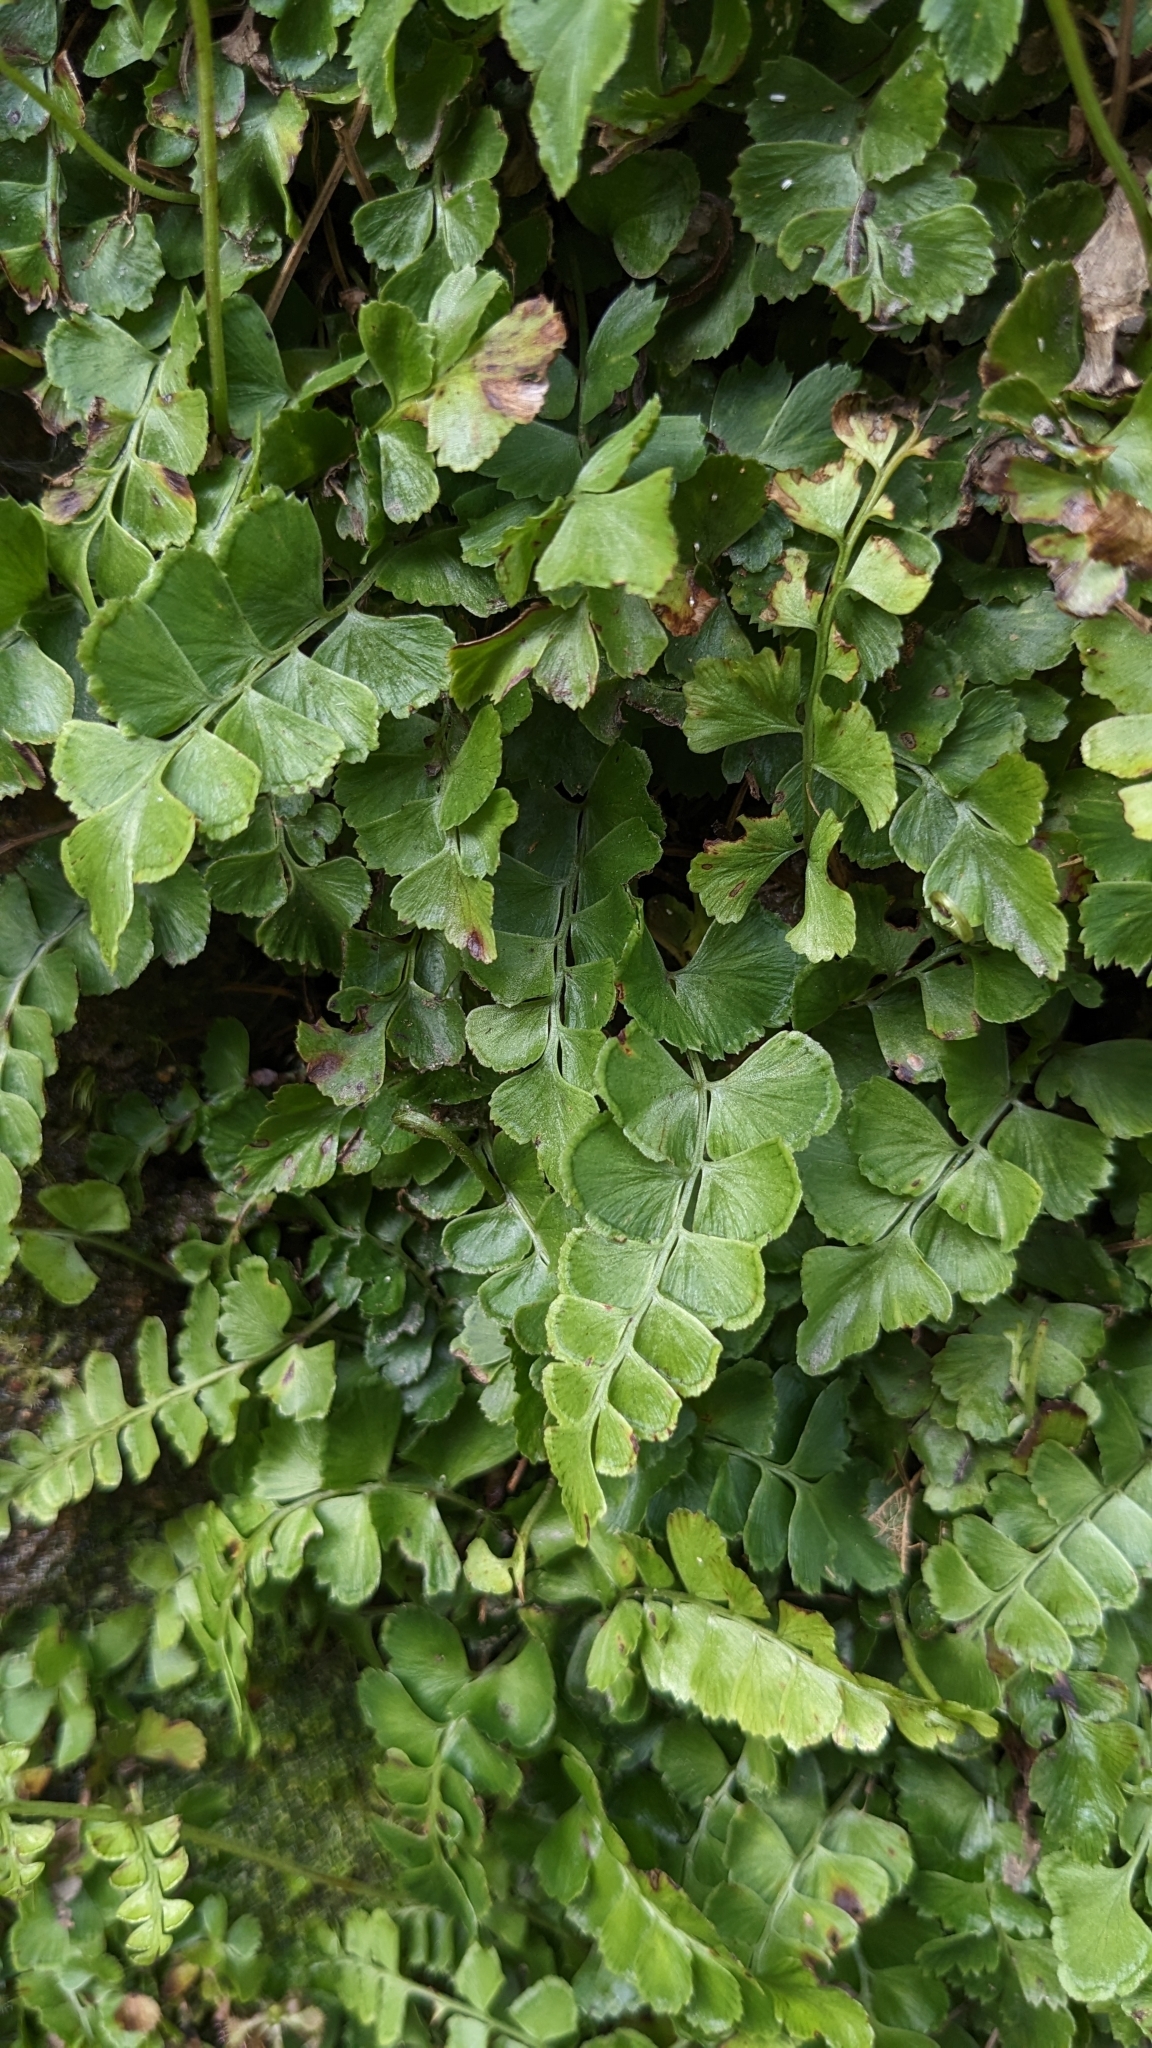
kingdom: Plantae
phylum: Tracheophyta
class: Polypodiopsida
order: Polypodiales
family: Lindsaeaceae
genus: Lindsaea
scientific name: Lindsaea orbiculata
